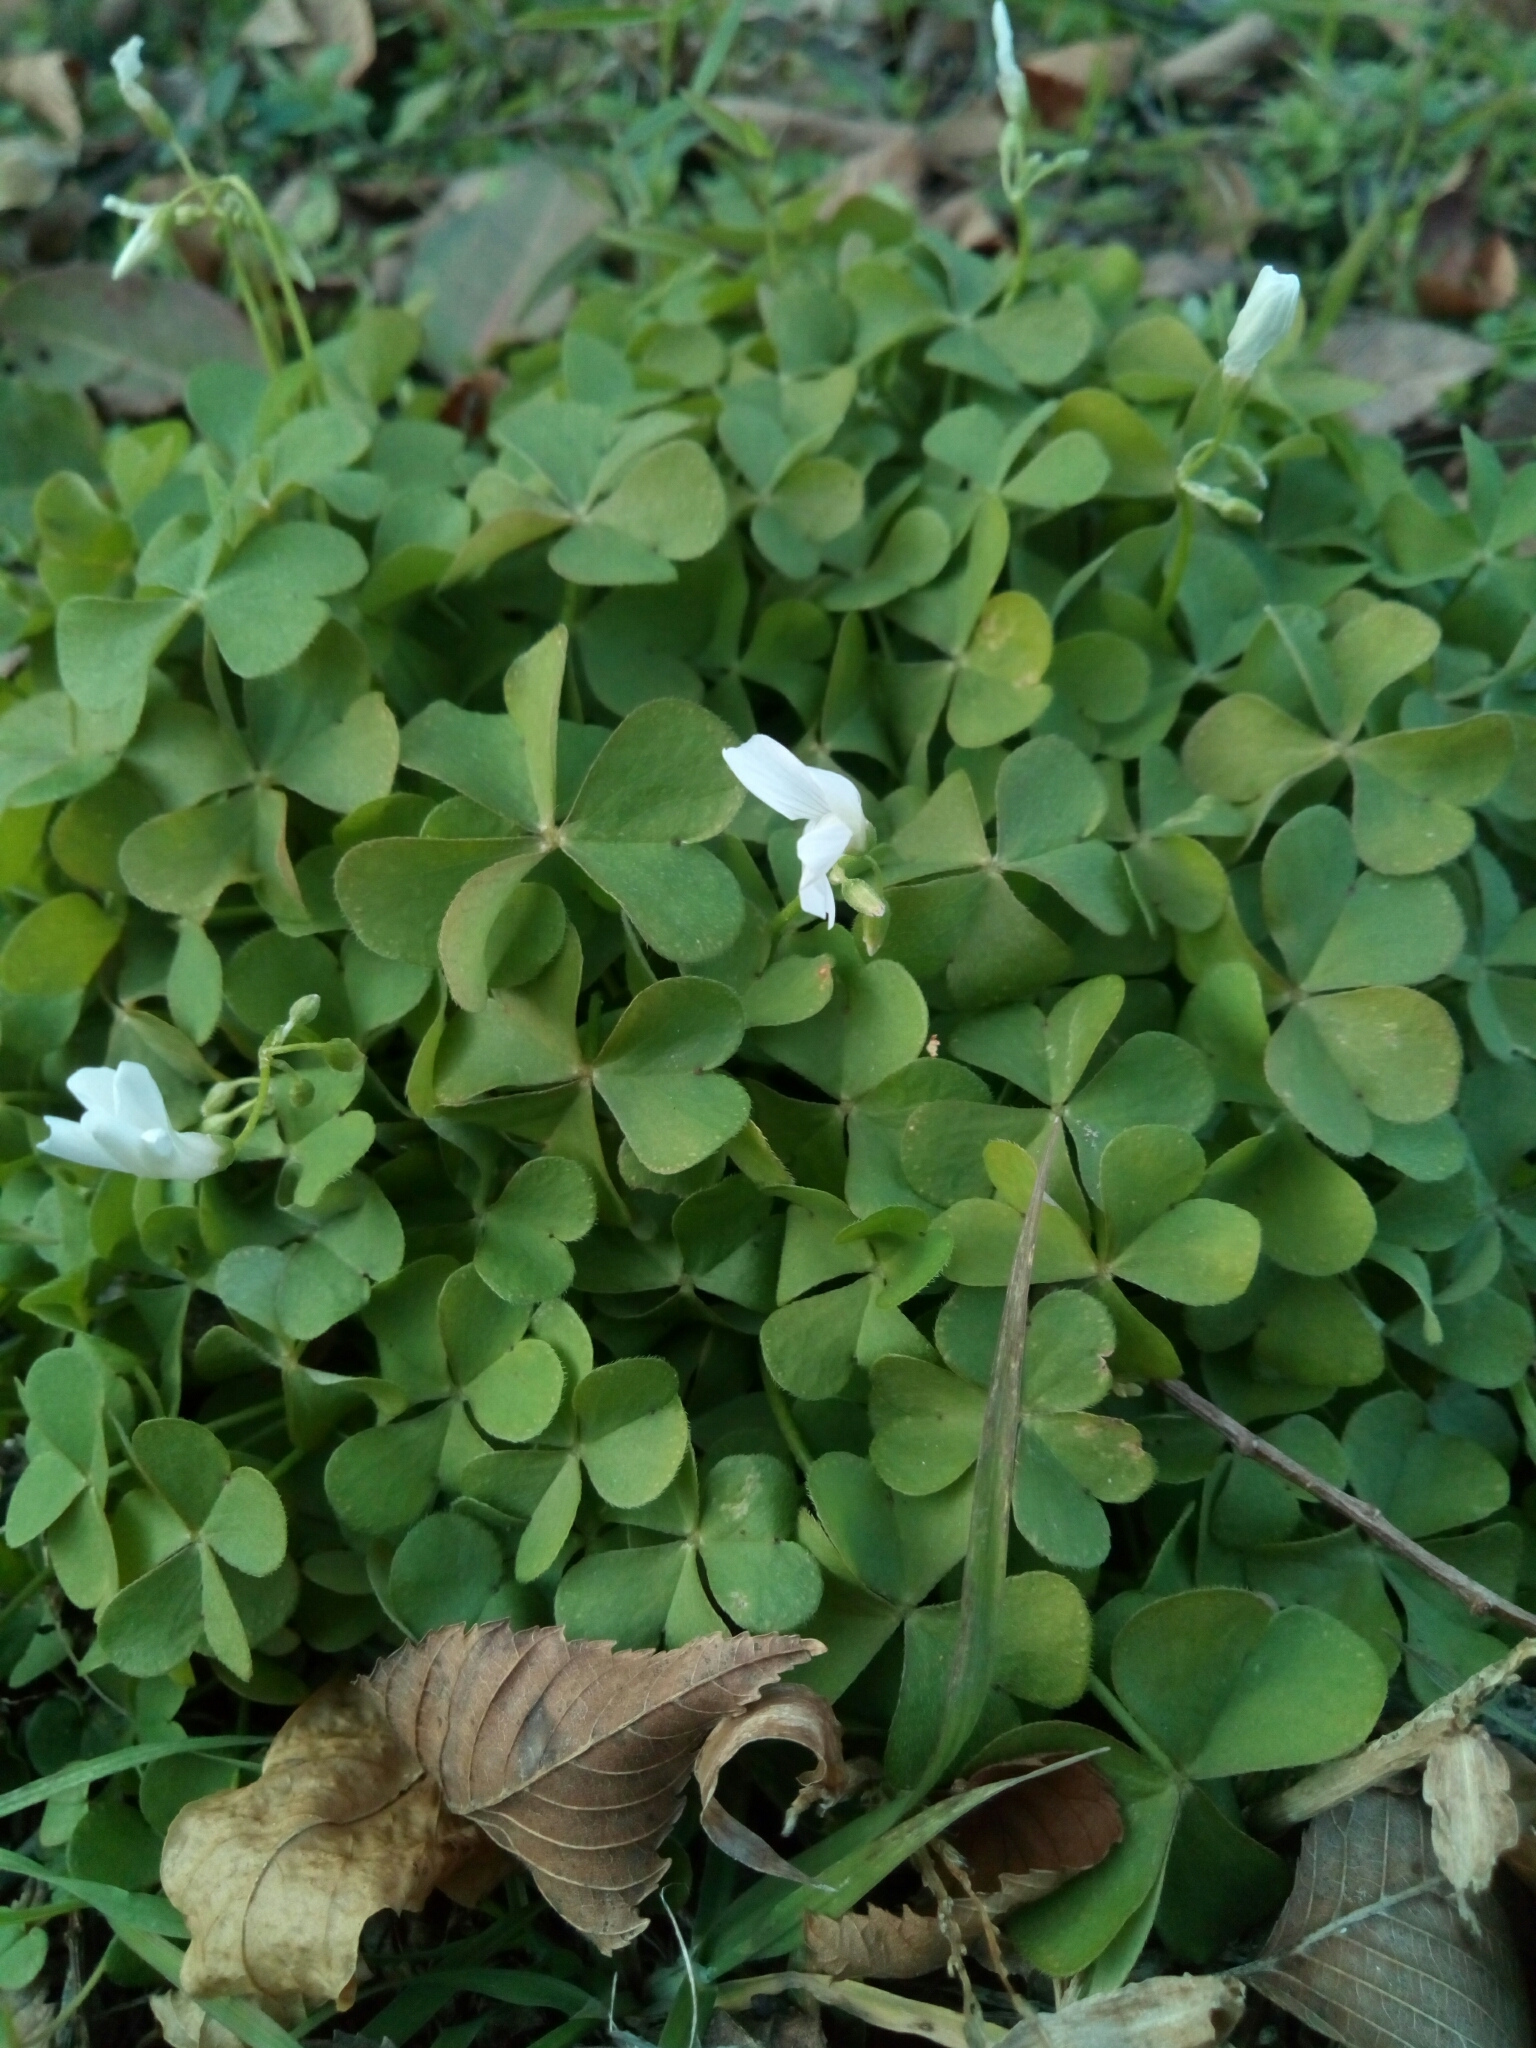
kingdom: Plantae
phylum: Tracheophyta
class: Magnoliopsida
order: Oxalidales
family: Oxalidaceae
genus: Oxalis
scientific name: Oxalis articulata
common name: Pink-sorrel
